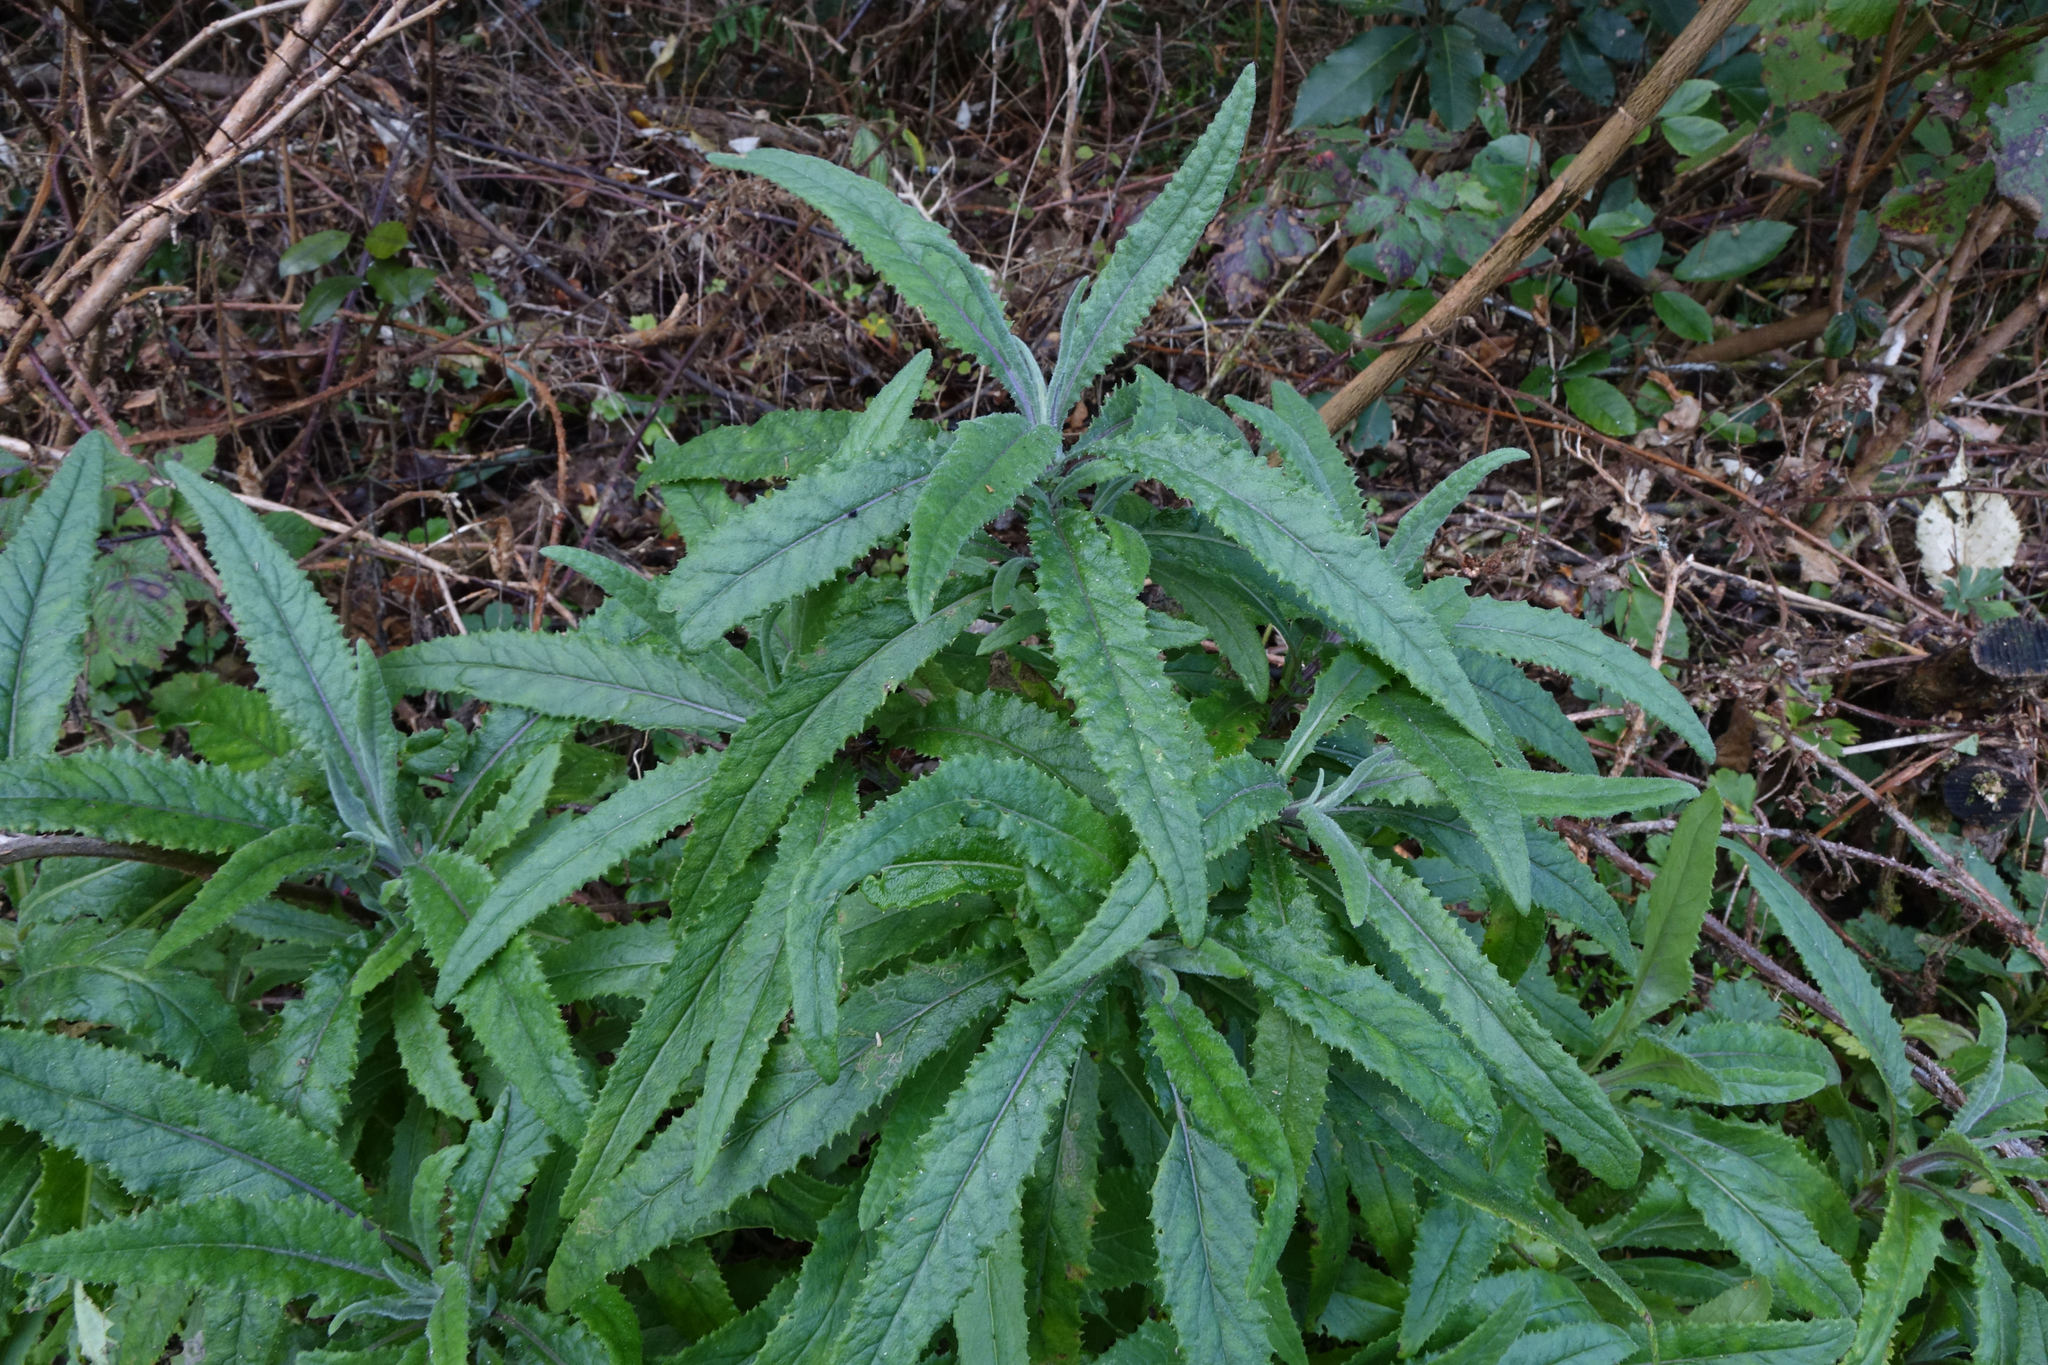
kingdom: Plantae
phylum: Tracheophyta
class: Magnoliopsida
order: Asterales
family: Asteraceae
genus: Senecio
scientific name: Senecio minimus
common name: Toothed fireweed
